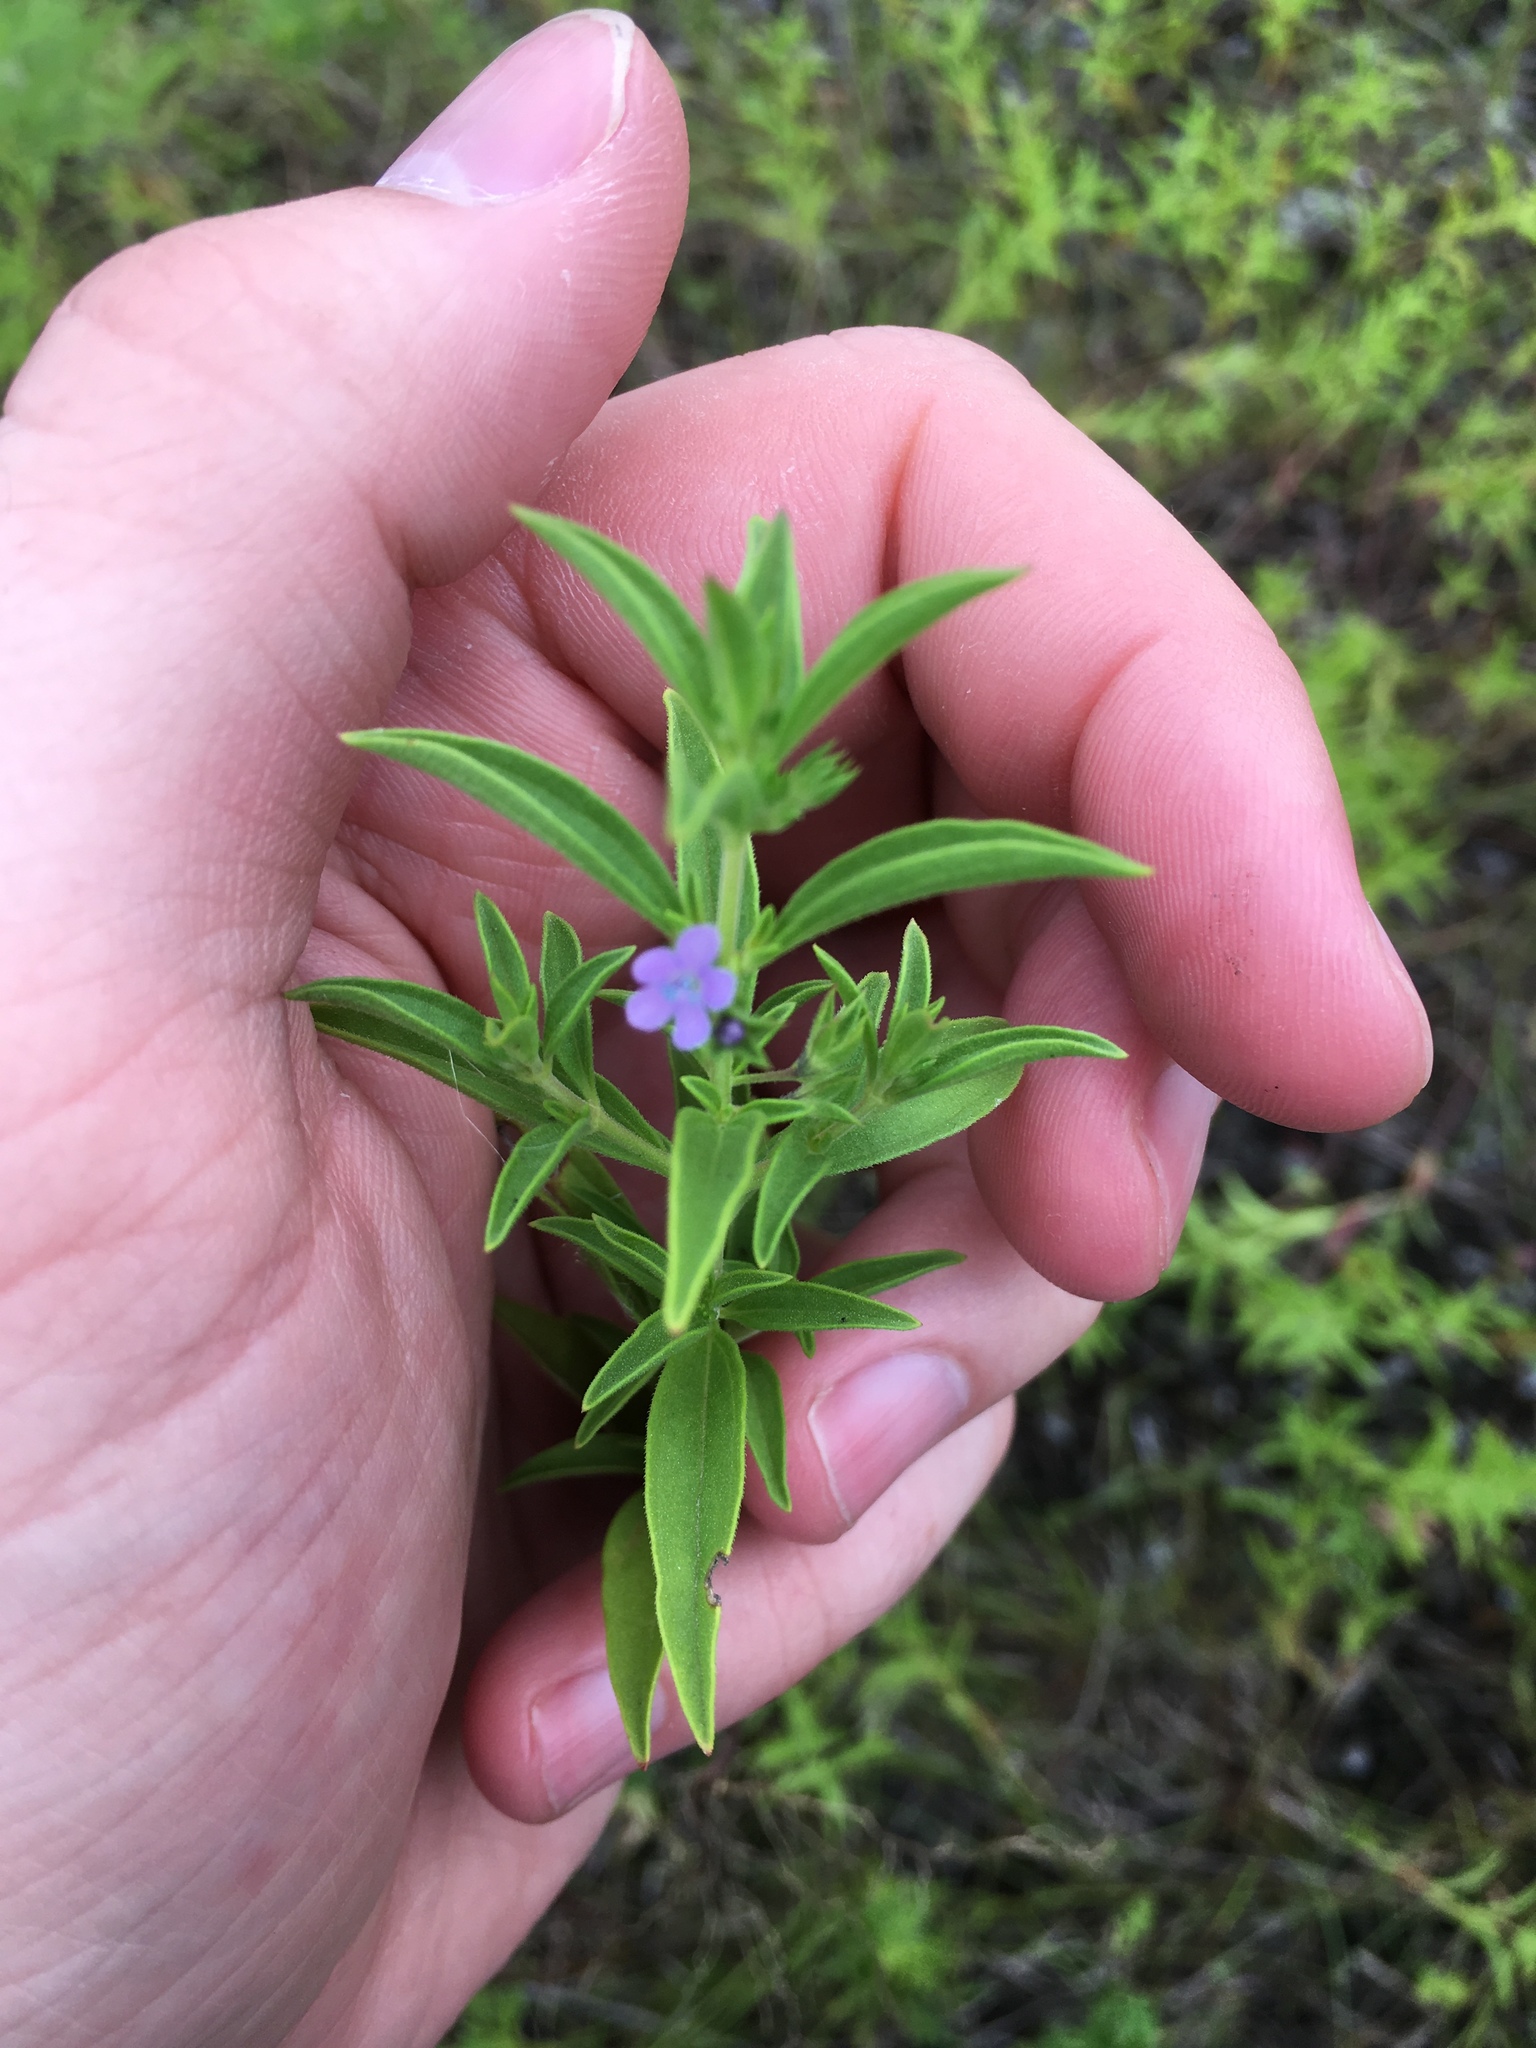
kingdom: Plantae
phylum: Tracheophyta
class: Magnoliopsida
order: Lamiales
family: Lamiaceae
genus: Trichostema
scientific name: Trichostema brachiatum
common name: False pennyroyal
